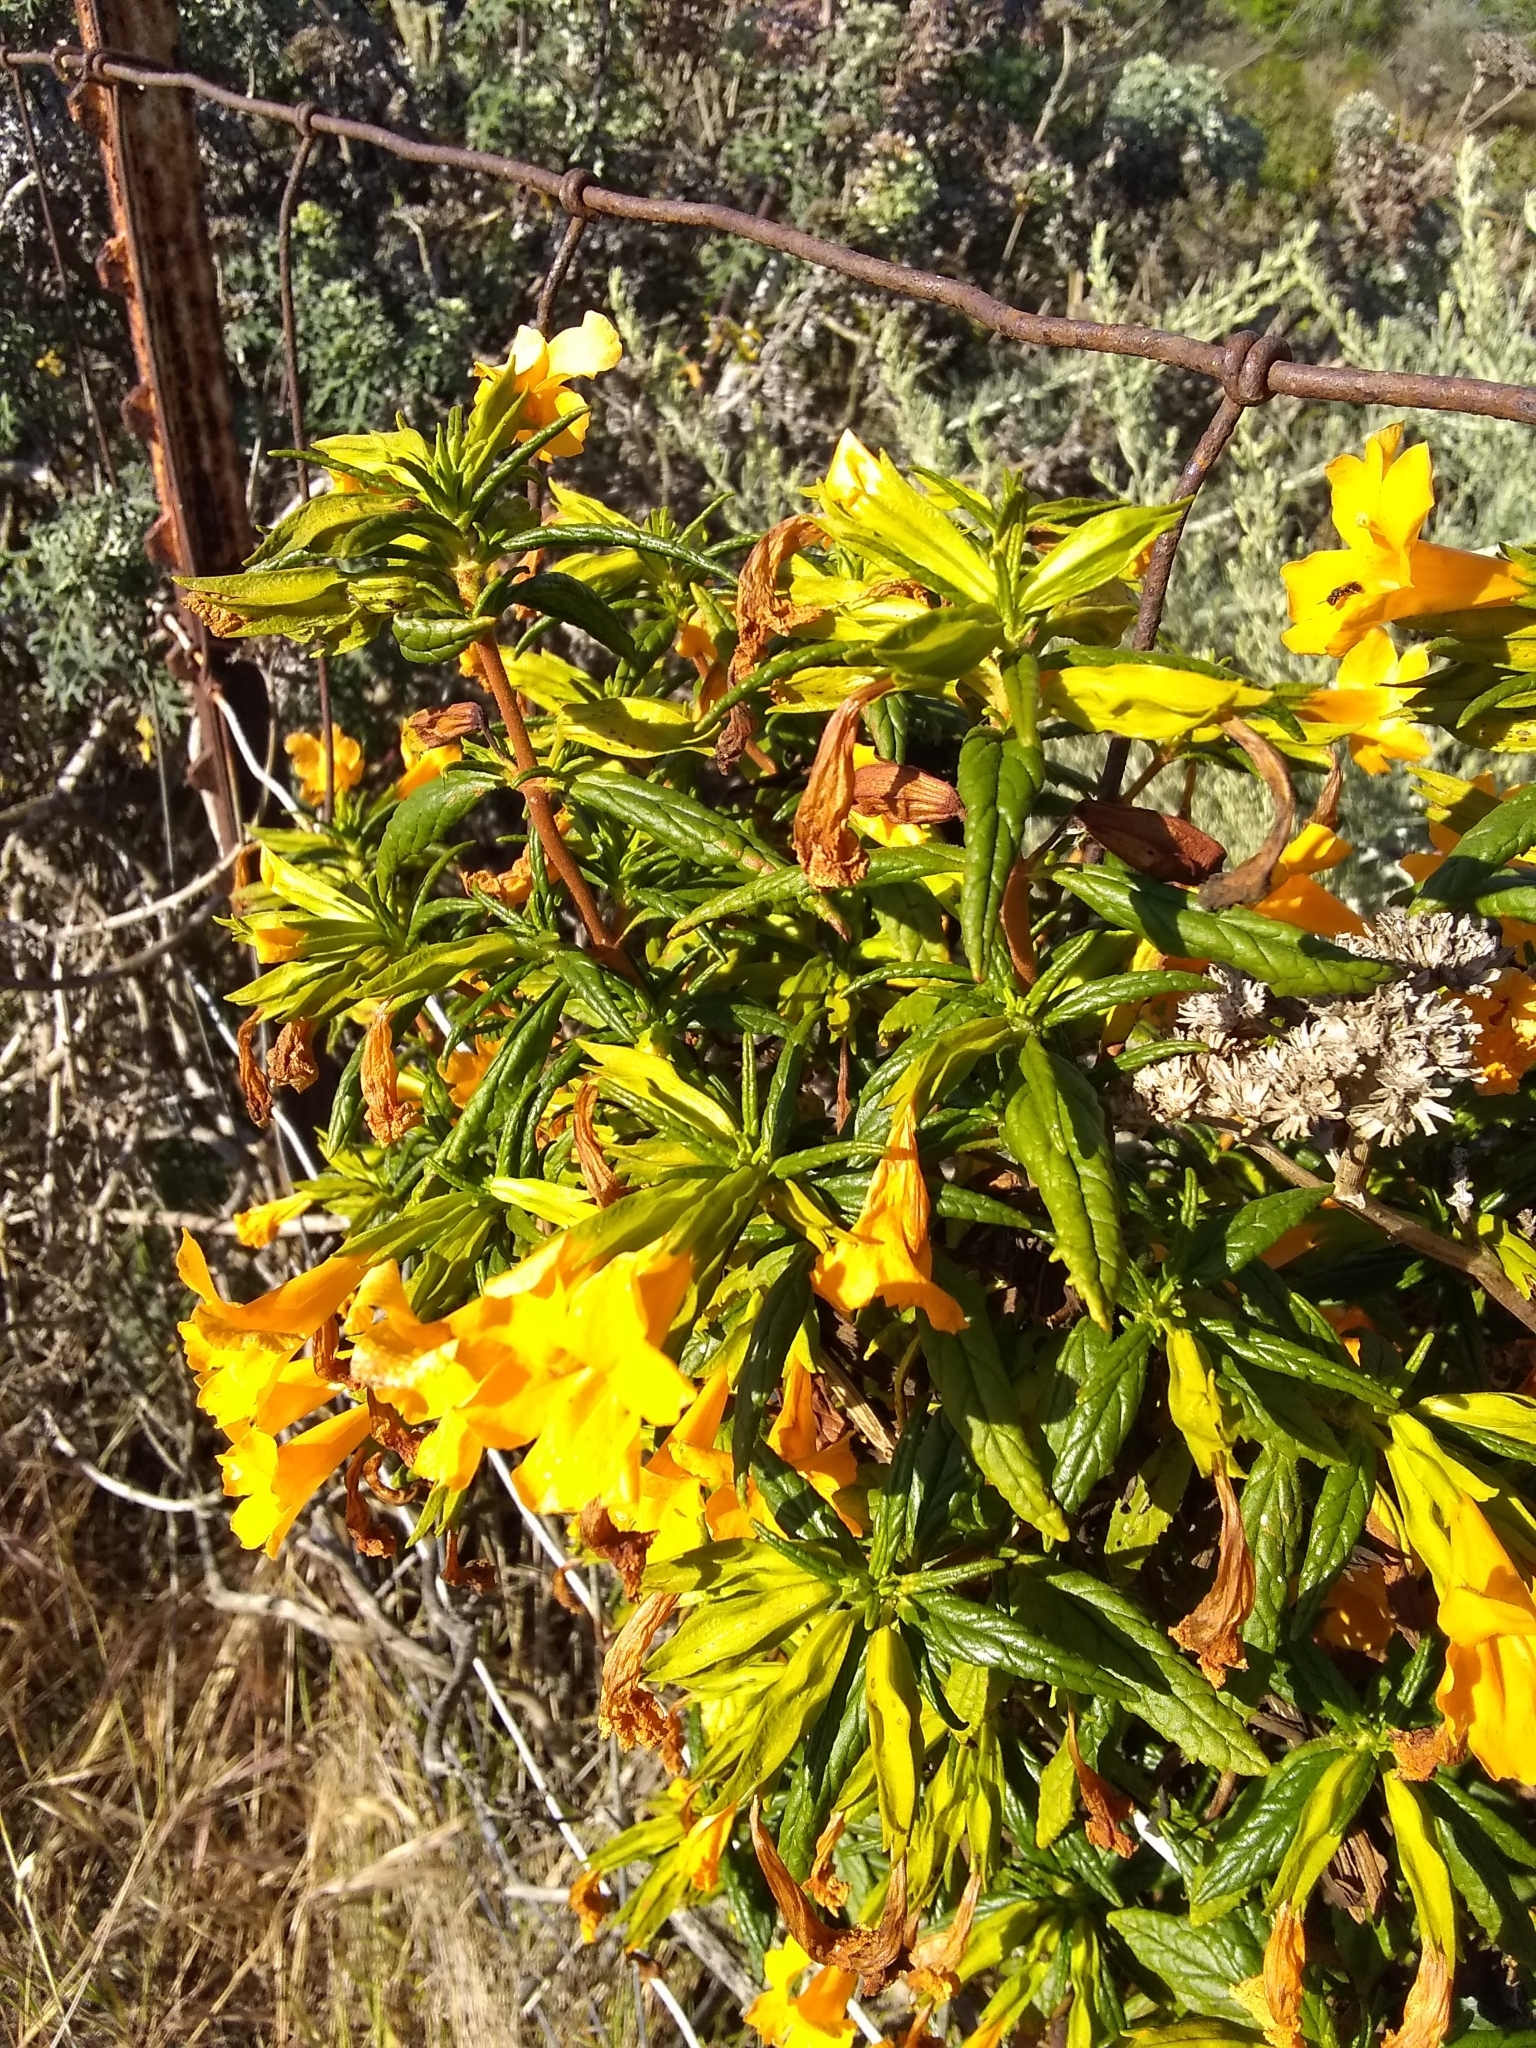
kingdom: Plantae
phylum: Tracheophyta
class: Magnoliopsida
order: Lamiales
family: Phrymaceae
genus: Diplacus
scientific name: Diplacus aurantiacus
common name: Bush monkey-flower
